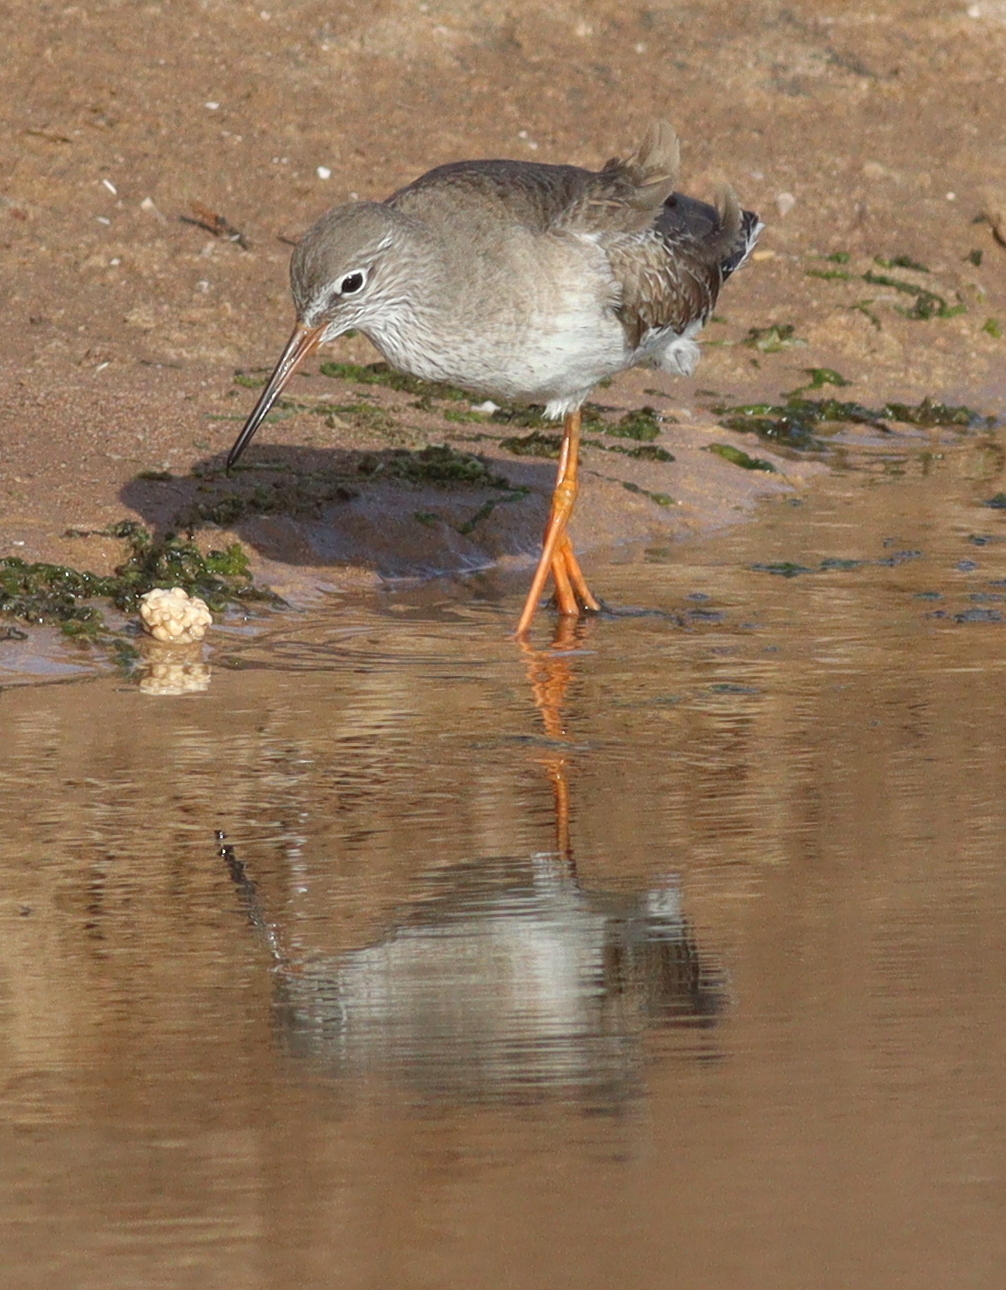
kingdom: Animalia
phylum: Chordata
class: Aves
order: Charadriiformes
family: Scolopacidae
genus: Tringa
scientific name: Tringa totanus
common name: Common redshank
